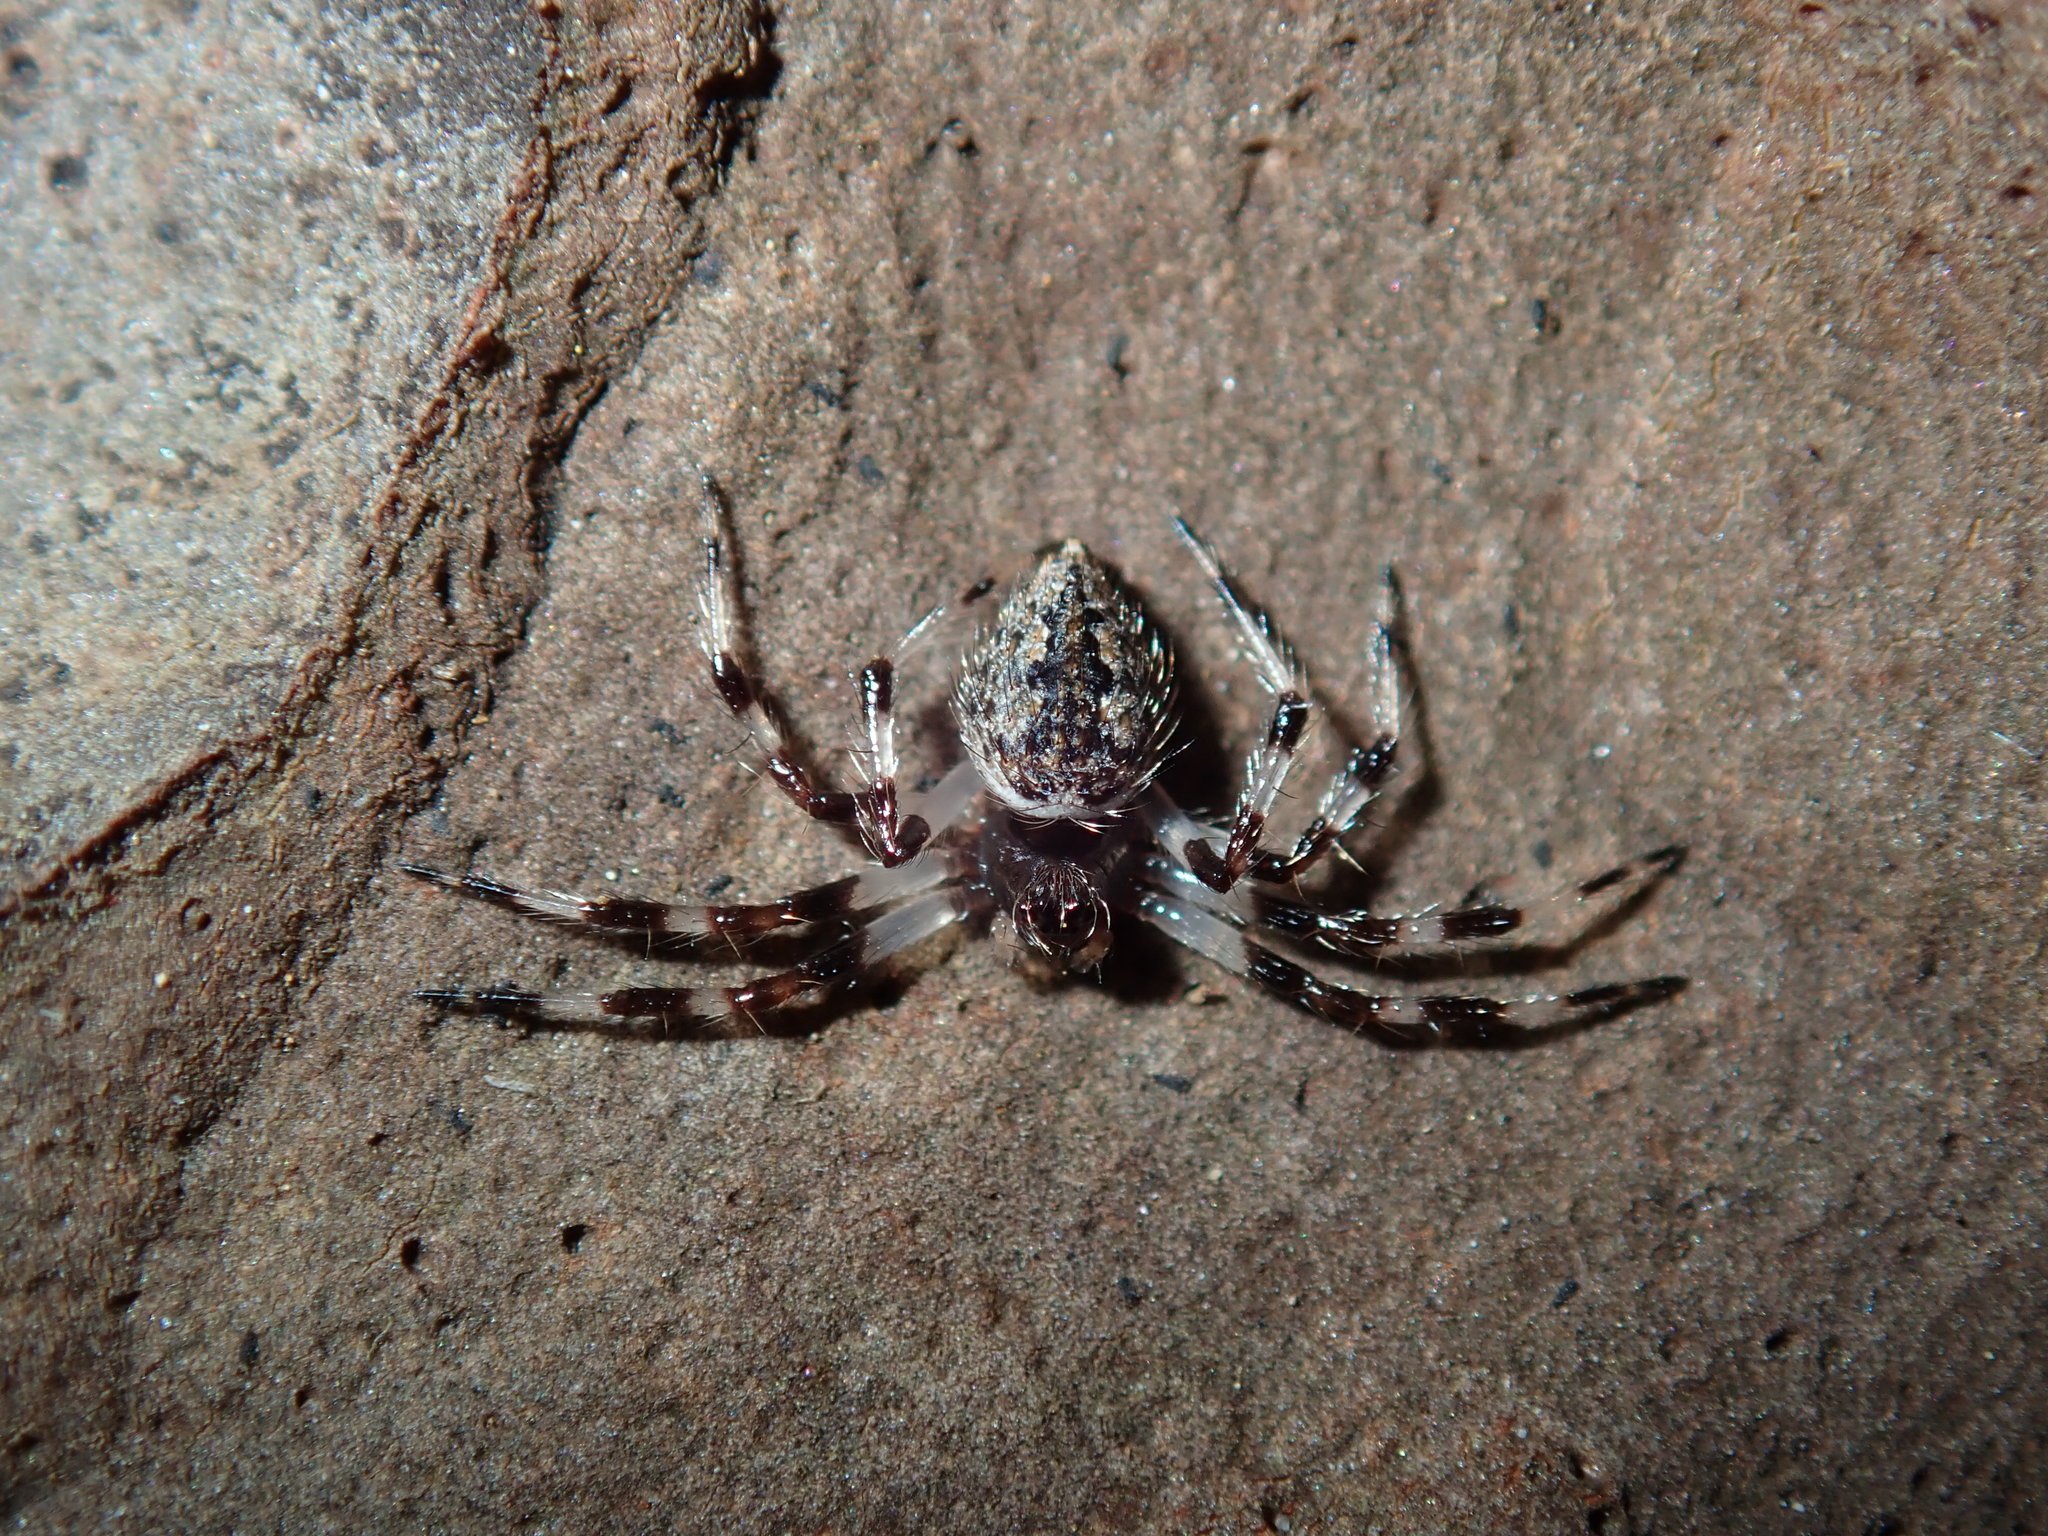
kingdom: Animalia
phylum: Arthropoda
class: Arachnida
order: Araneae
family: Theridiidae
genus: Euryopis
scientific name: Euryopis elegans
